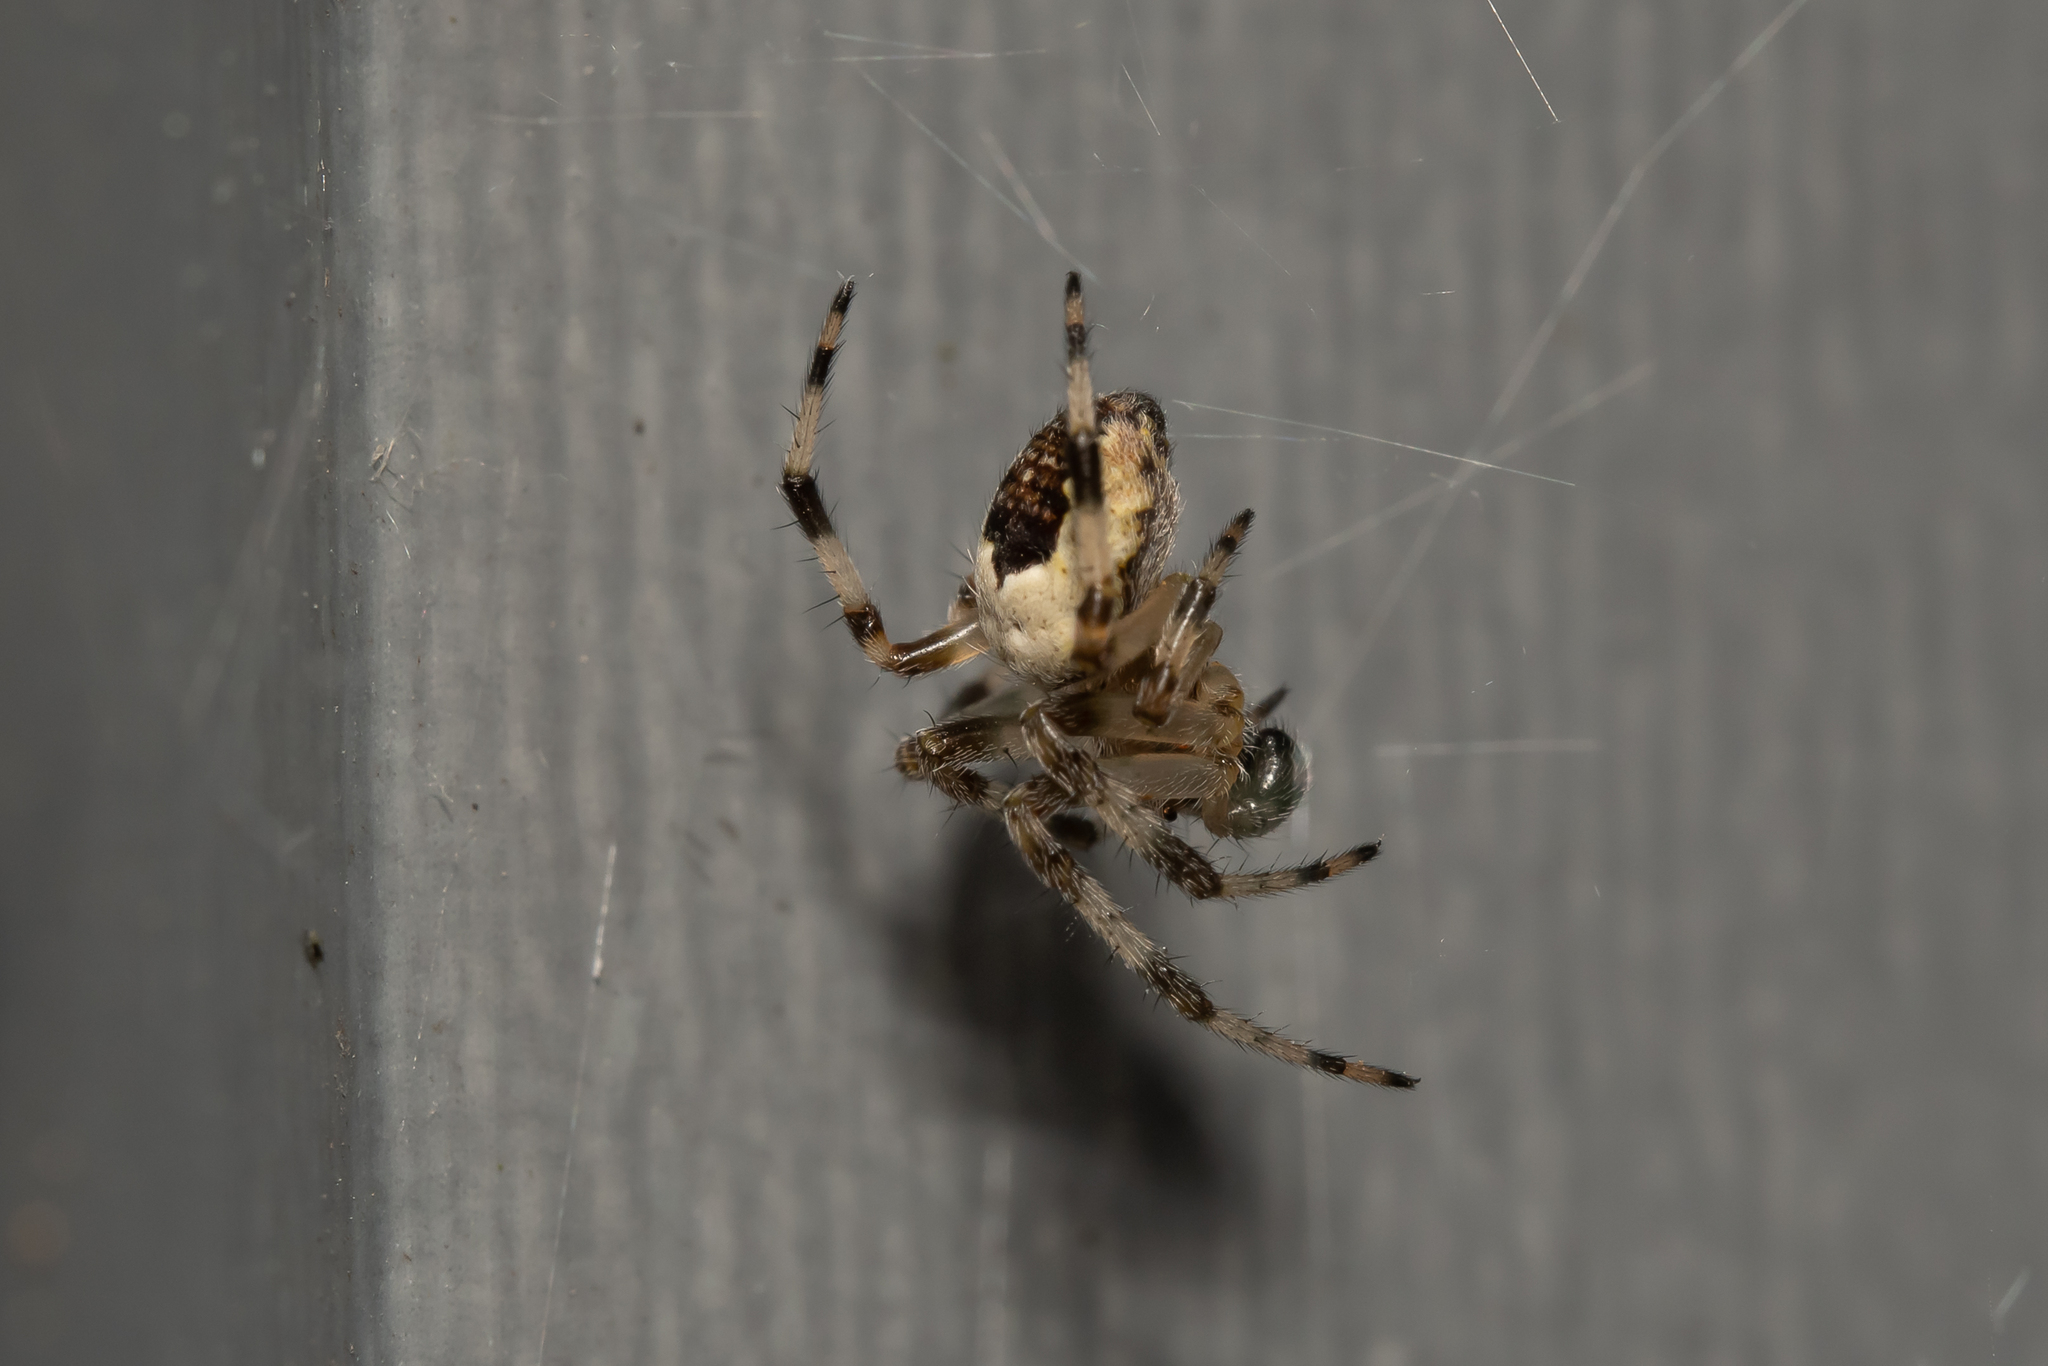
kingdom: Animalia
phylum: Arthropoda
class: Arachnida
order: Araneae
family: Araneidae
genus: Araneus
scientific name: Araneus marmoreus
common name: Marbled orbweaver
